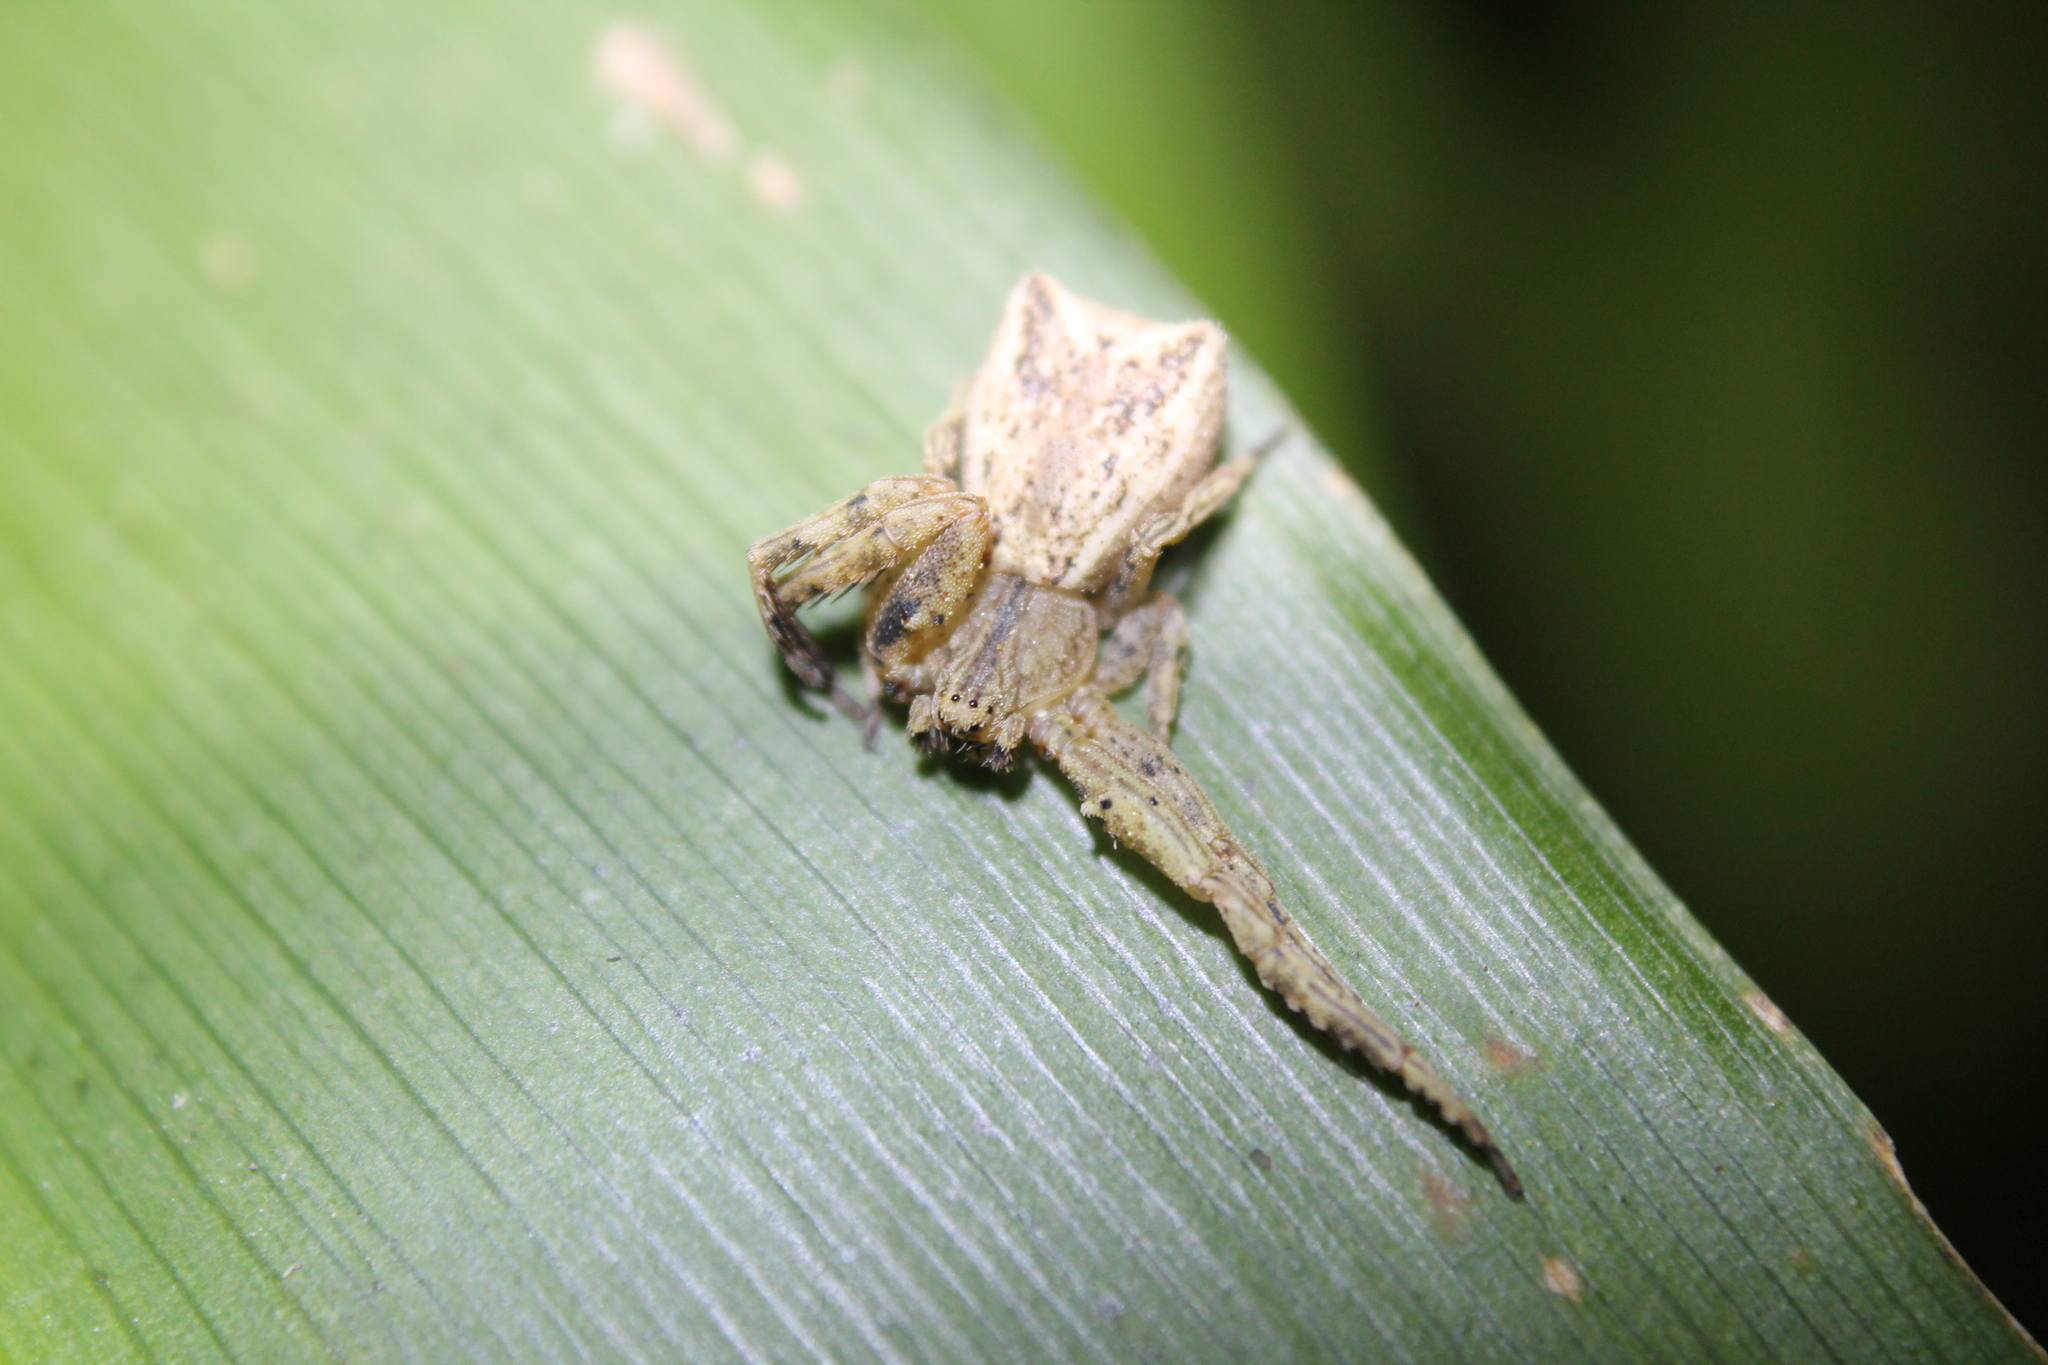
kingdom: Animalia
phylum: Arthropoda
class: Arachnida
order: Araneae
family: Thomisidae
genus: Sidymella
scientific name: Sidymella angulata
